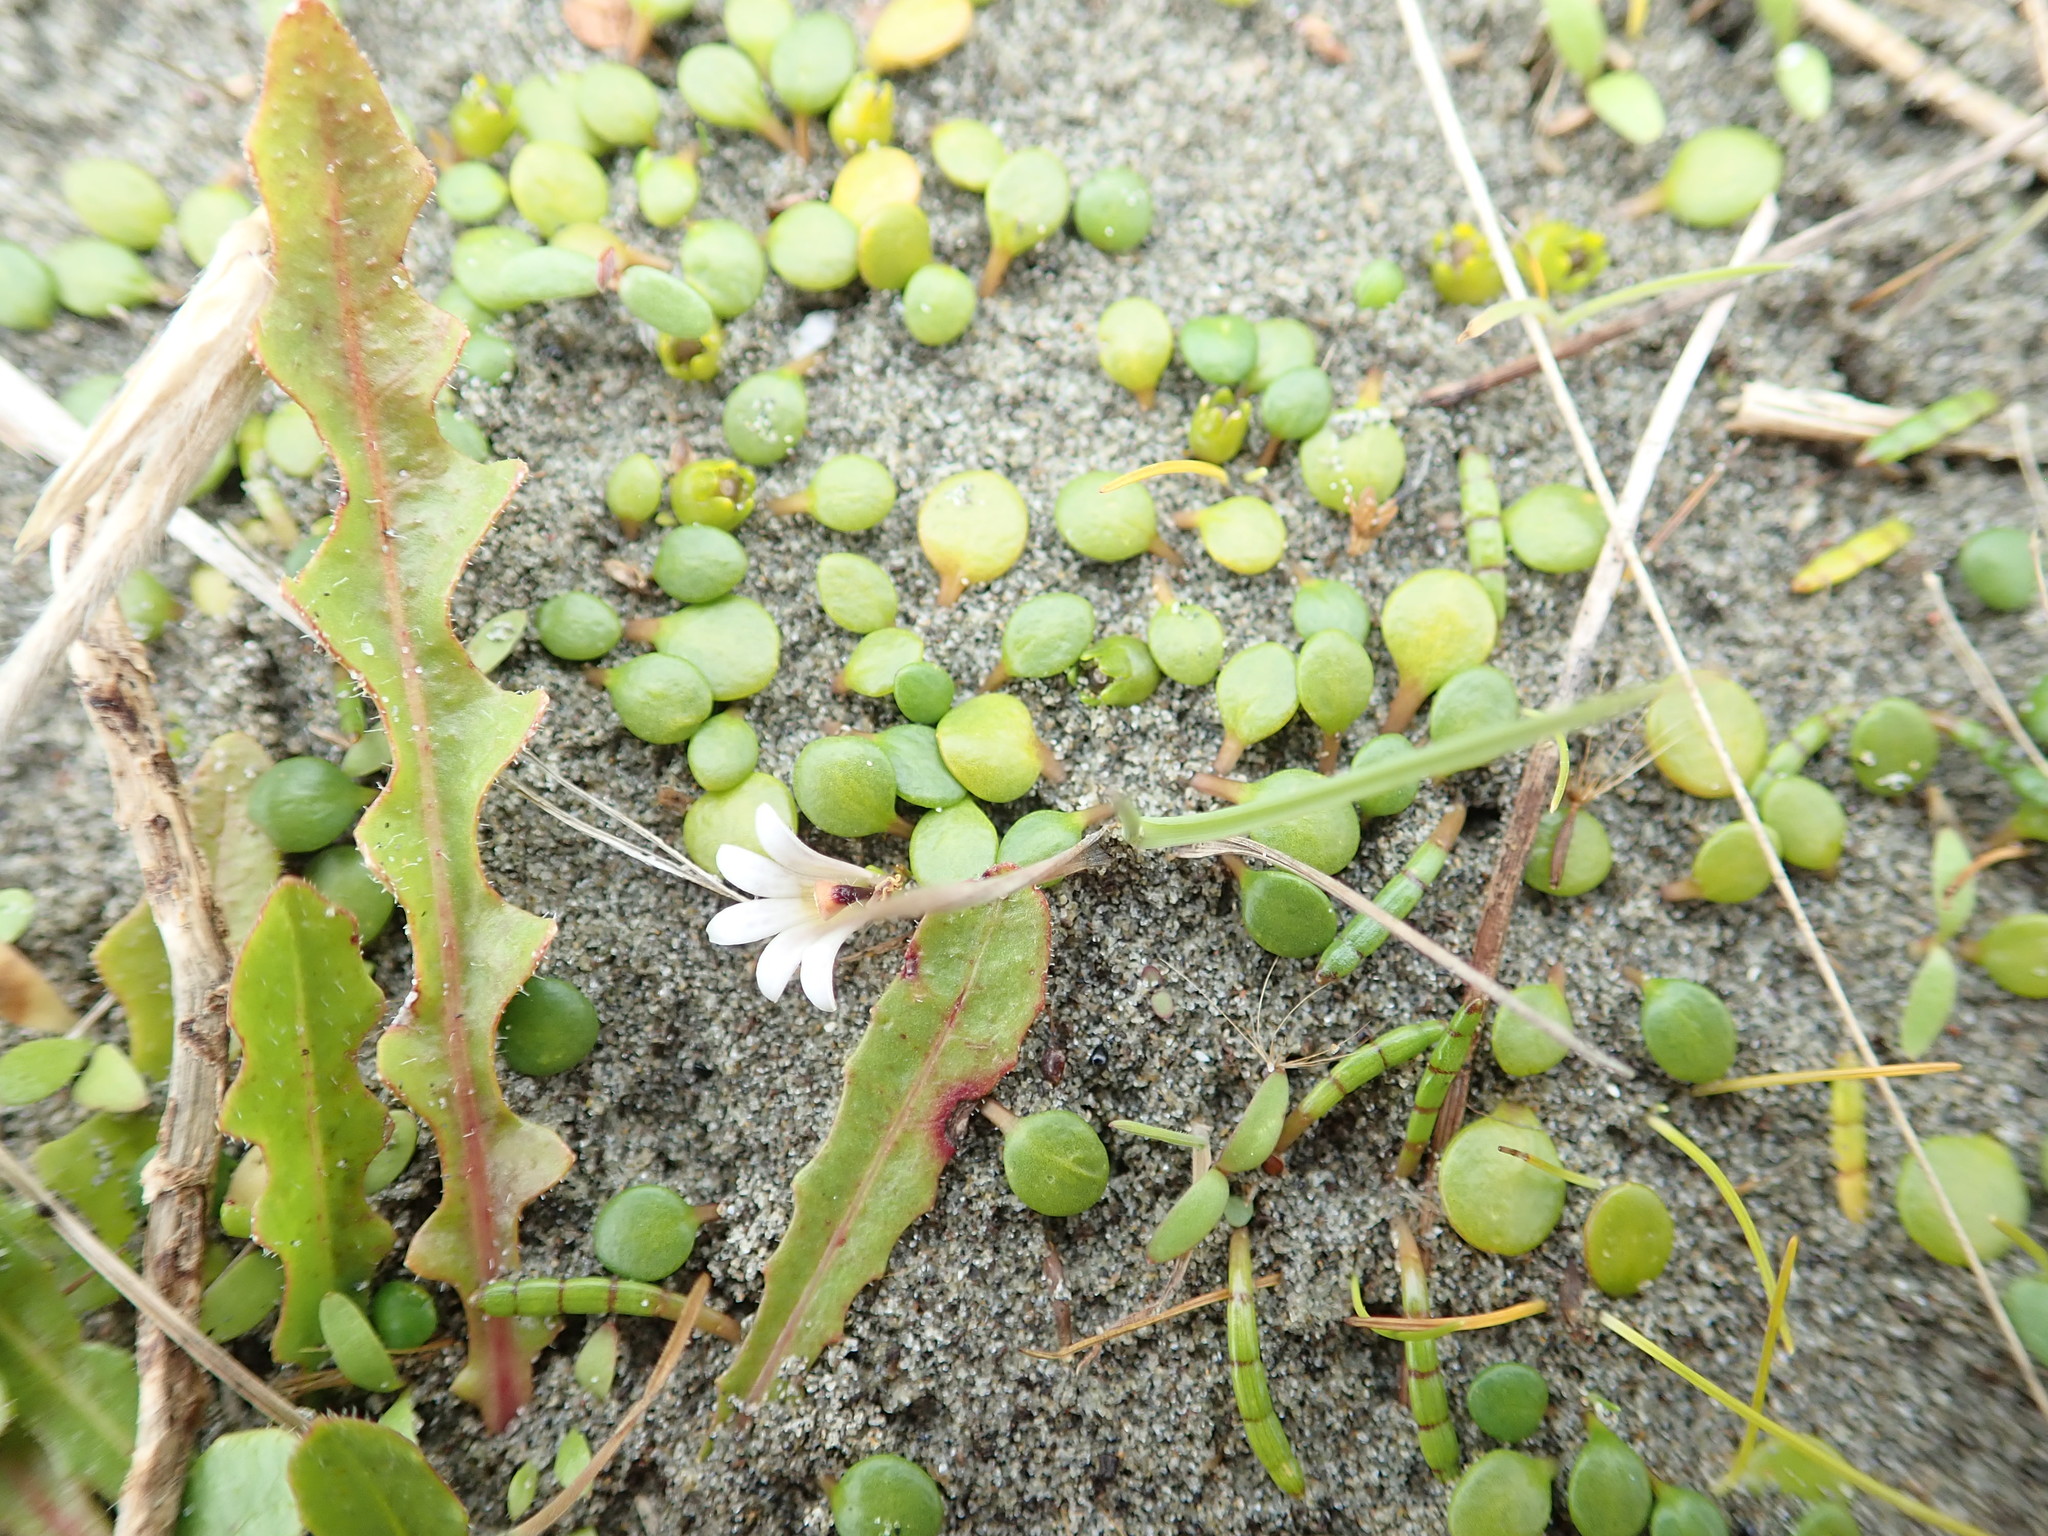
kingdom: Plantae
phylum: Tracheophyta
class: Magnoliopsida
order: Asterales
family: Goodeniaceae
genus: Goodenia
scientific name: Goodenia heenanii
